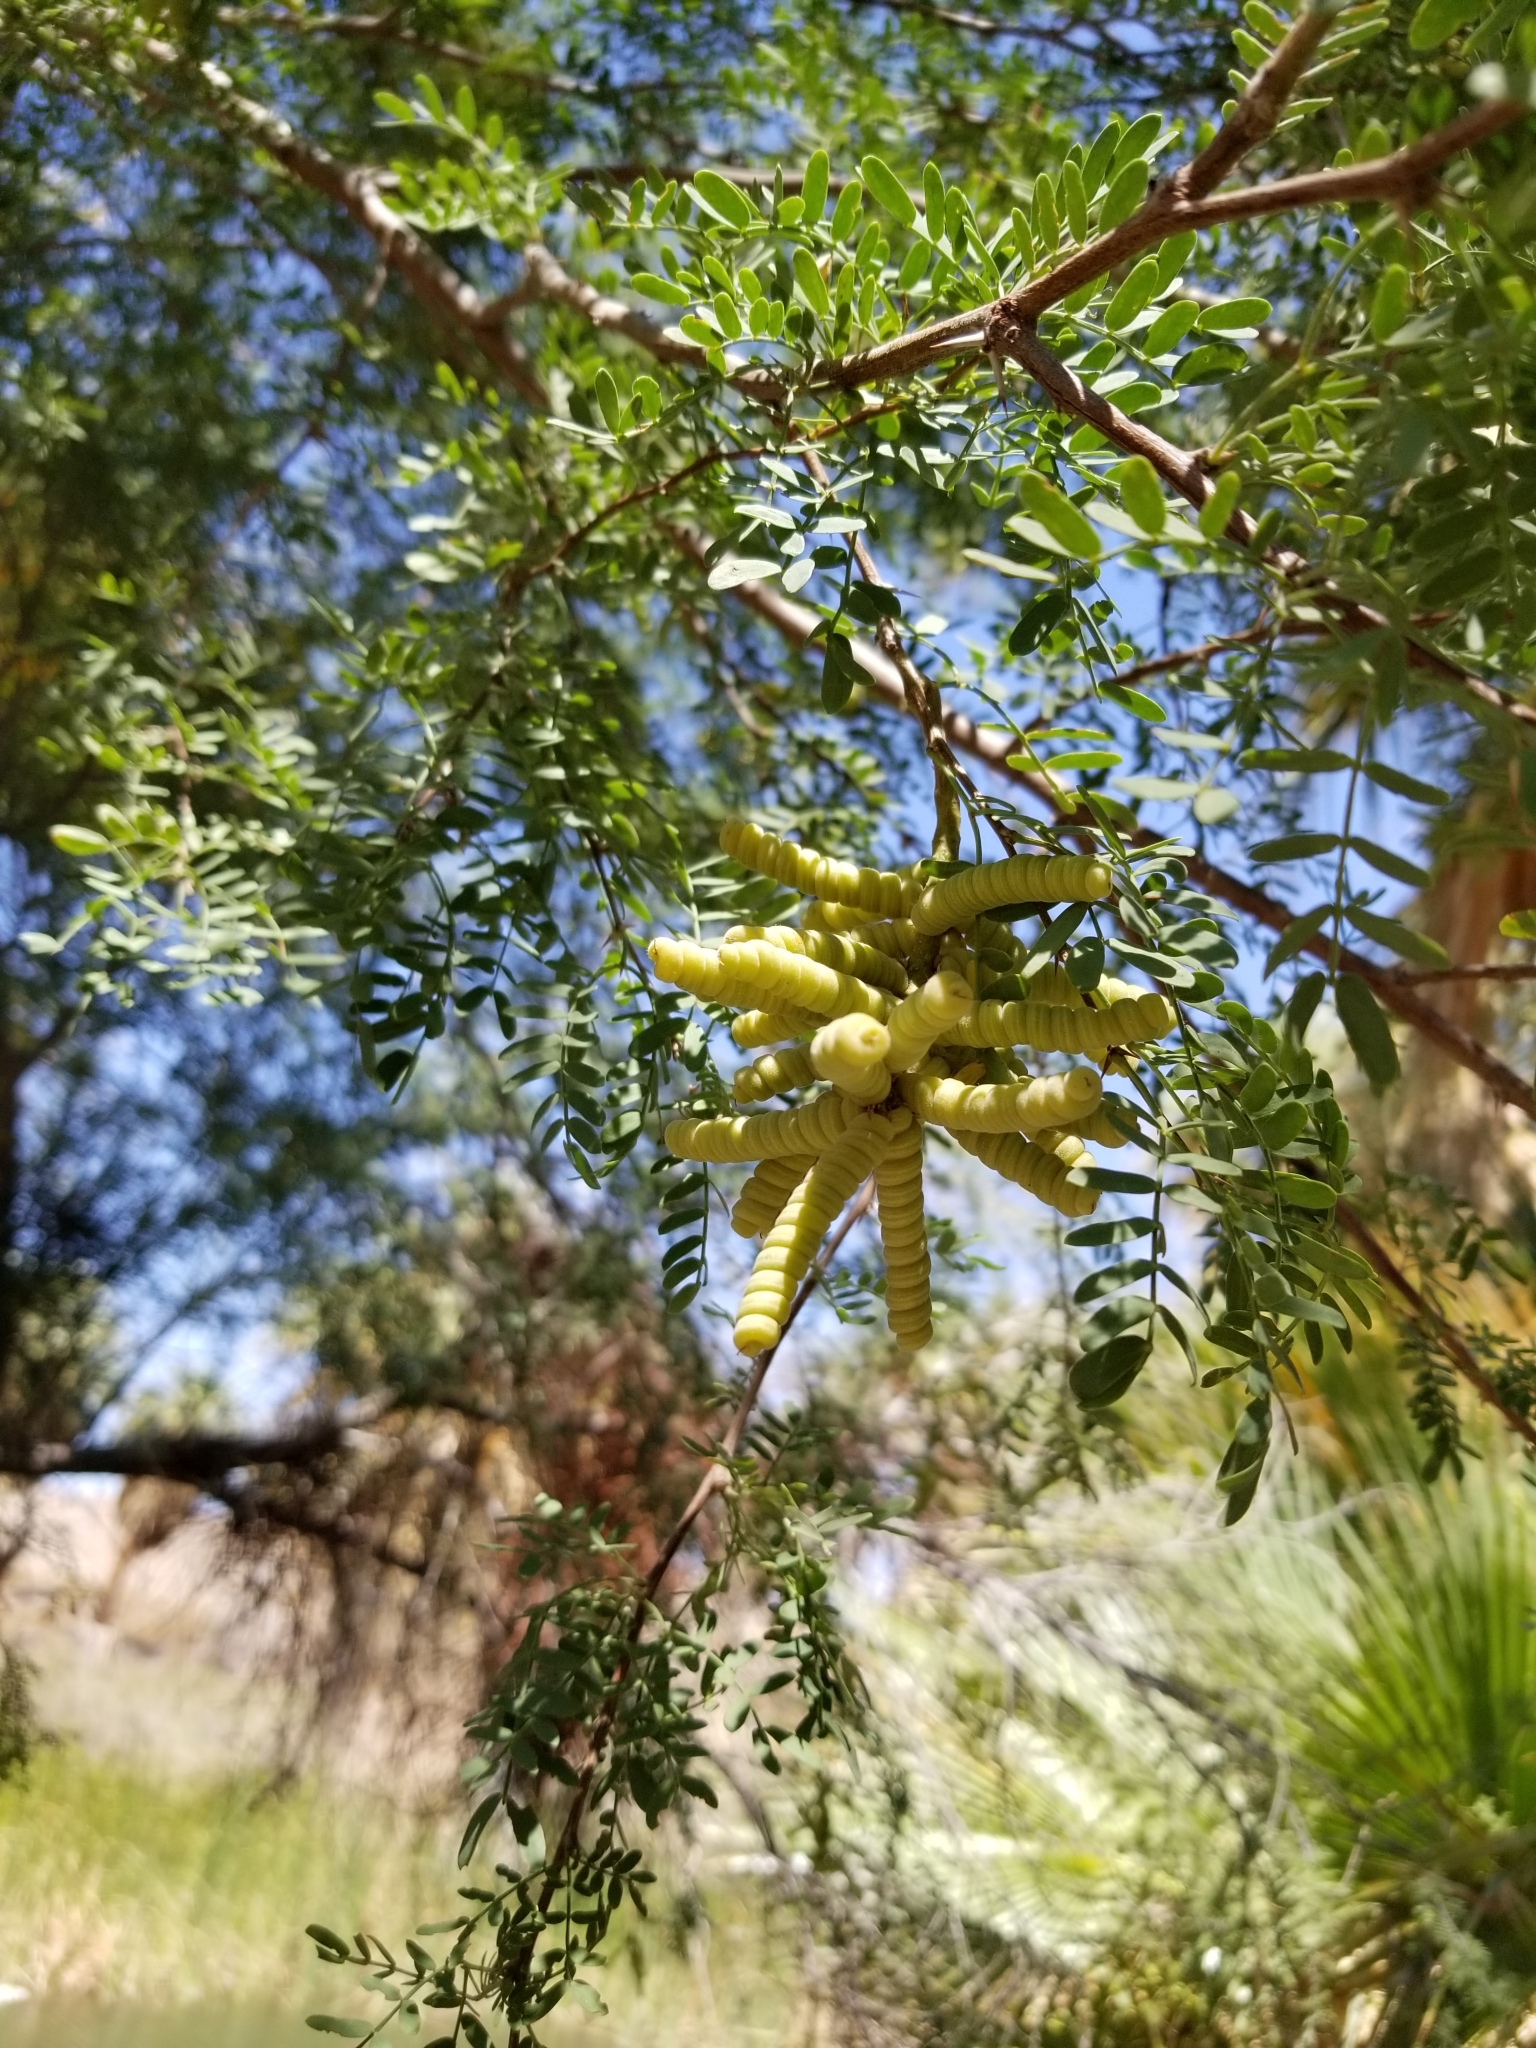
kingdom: Plantae
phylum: Tracheophyta
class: Magnoliopsida
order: Fabales
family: Fabaceae
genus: Prosopis
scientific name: Prosopis pubescens
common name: Screw-bean
